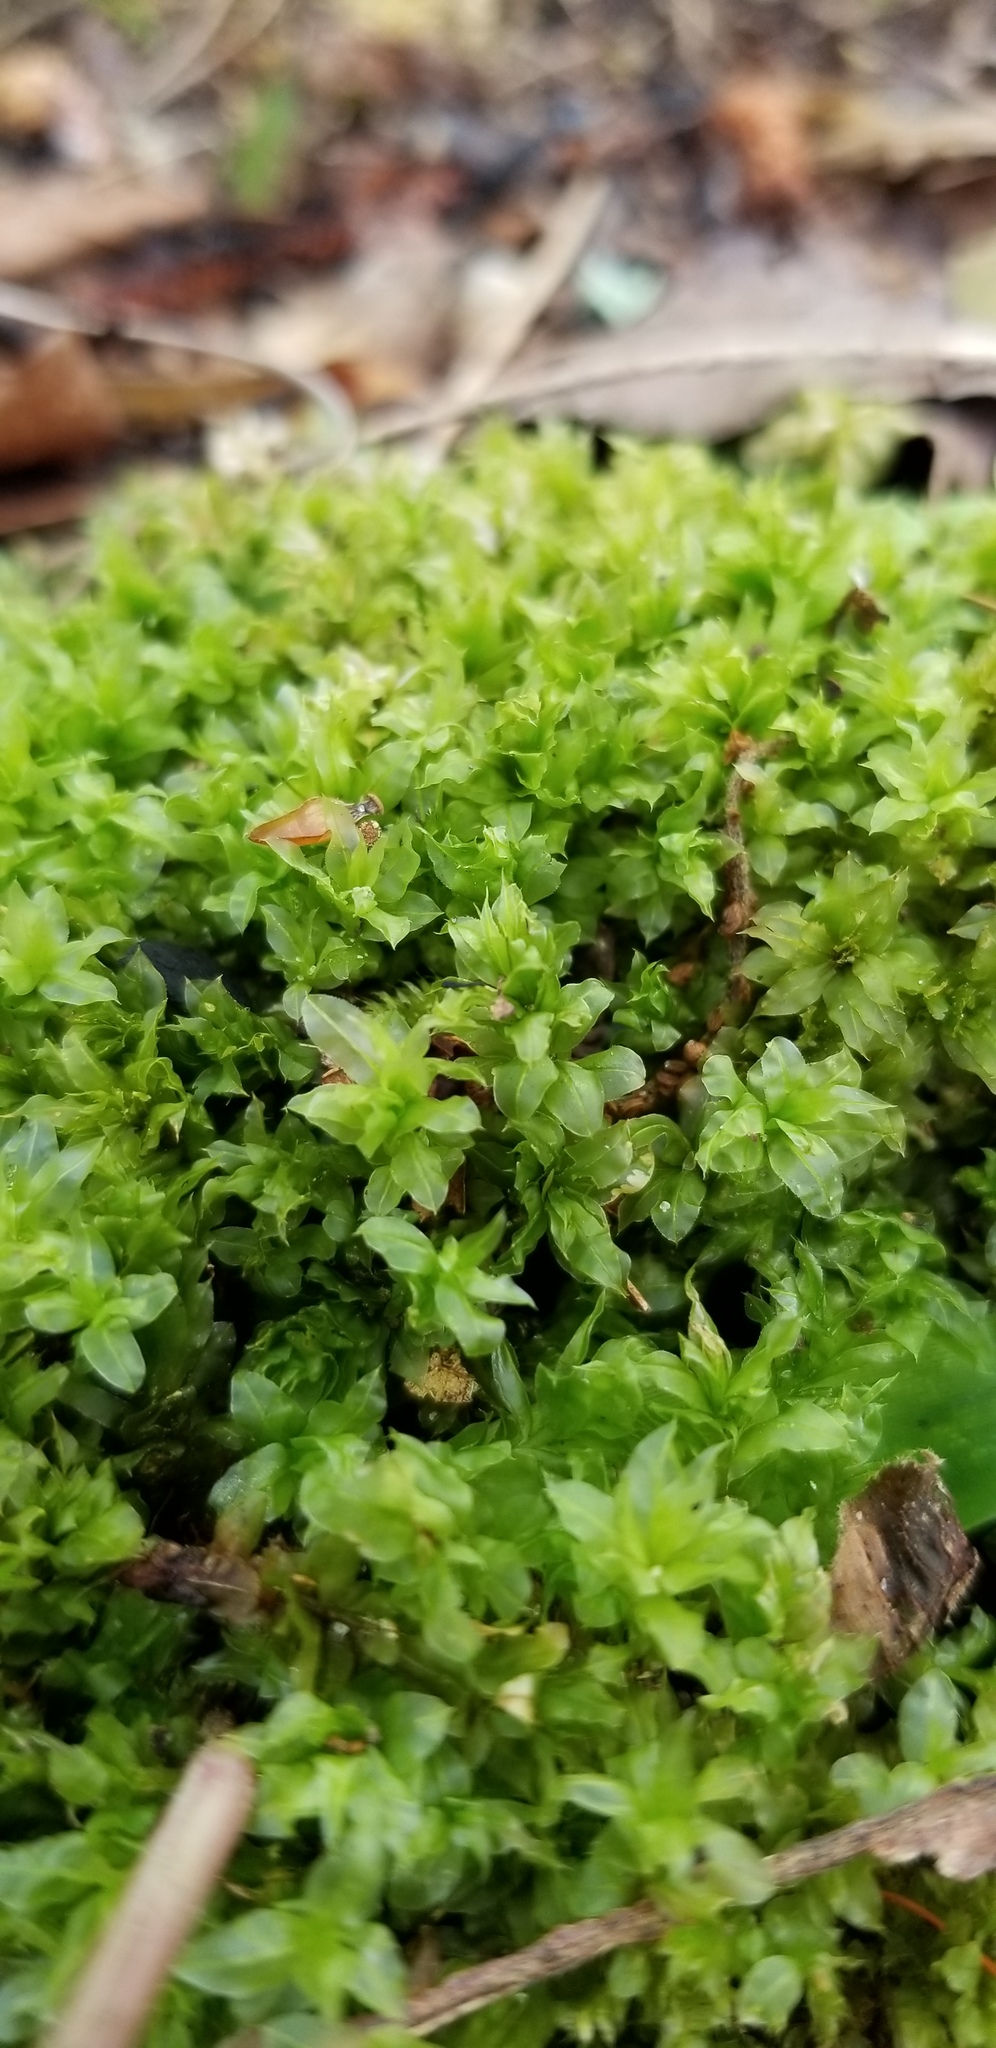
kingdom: Plantae
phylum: Bryophyta
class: Bryopsida
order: Bryales
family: Mniaceae
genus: Plagiomnium
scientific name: Plagiomnium ciliare
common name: Toothed leafy moss
